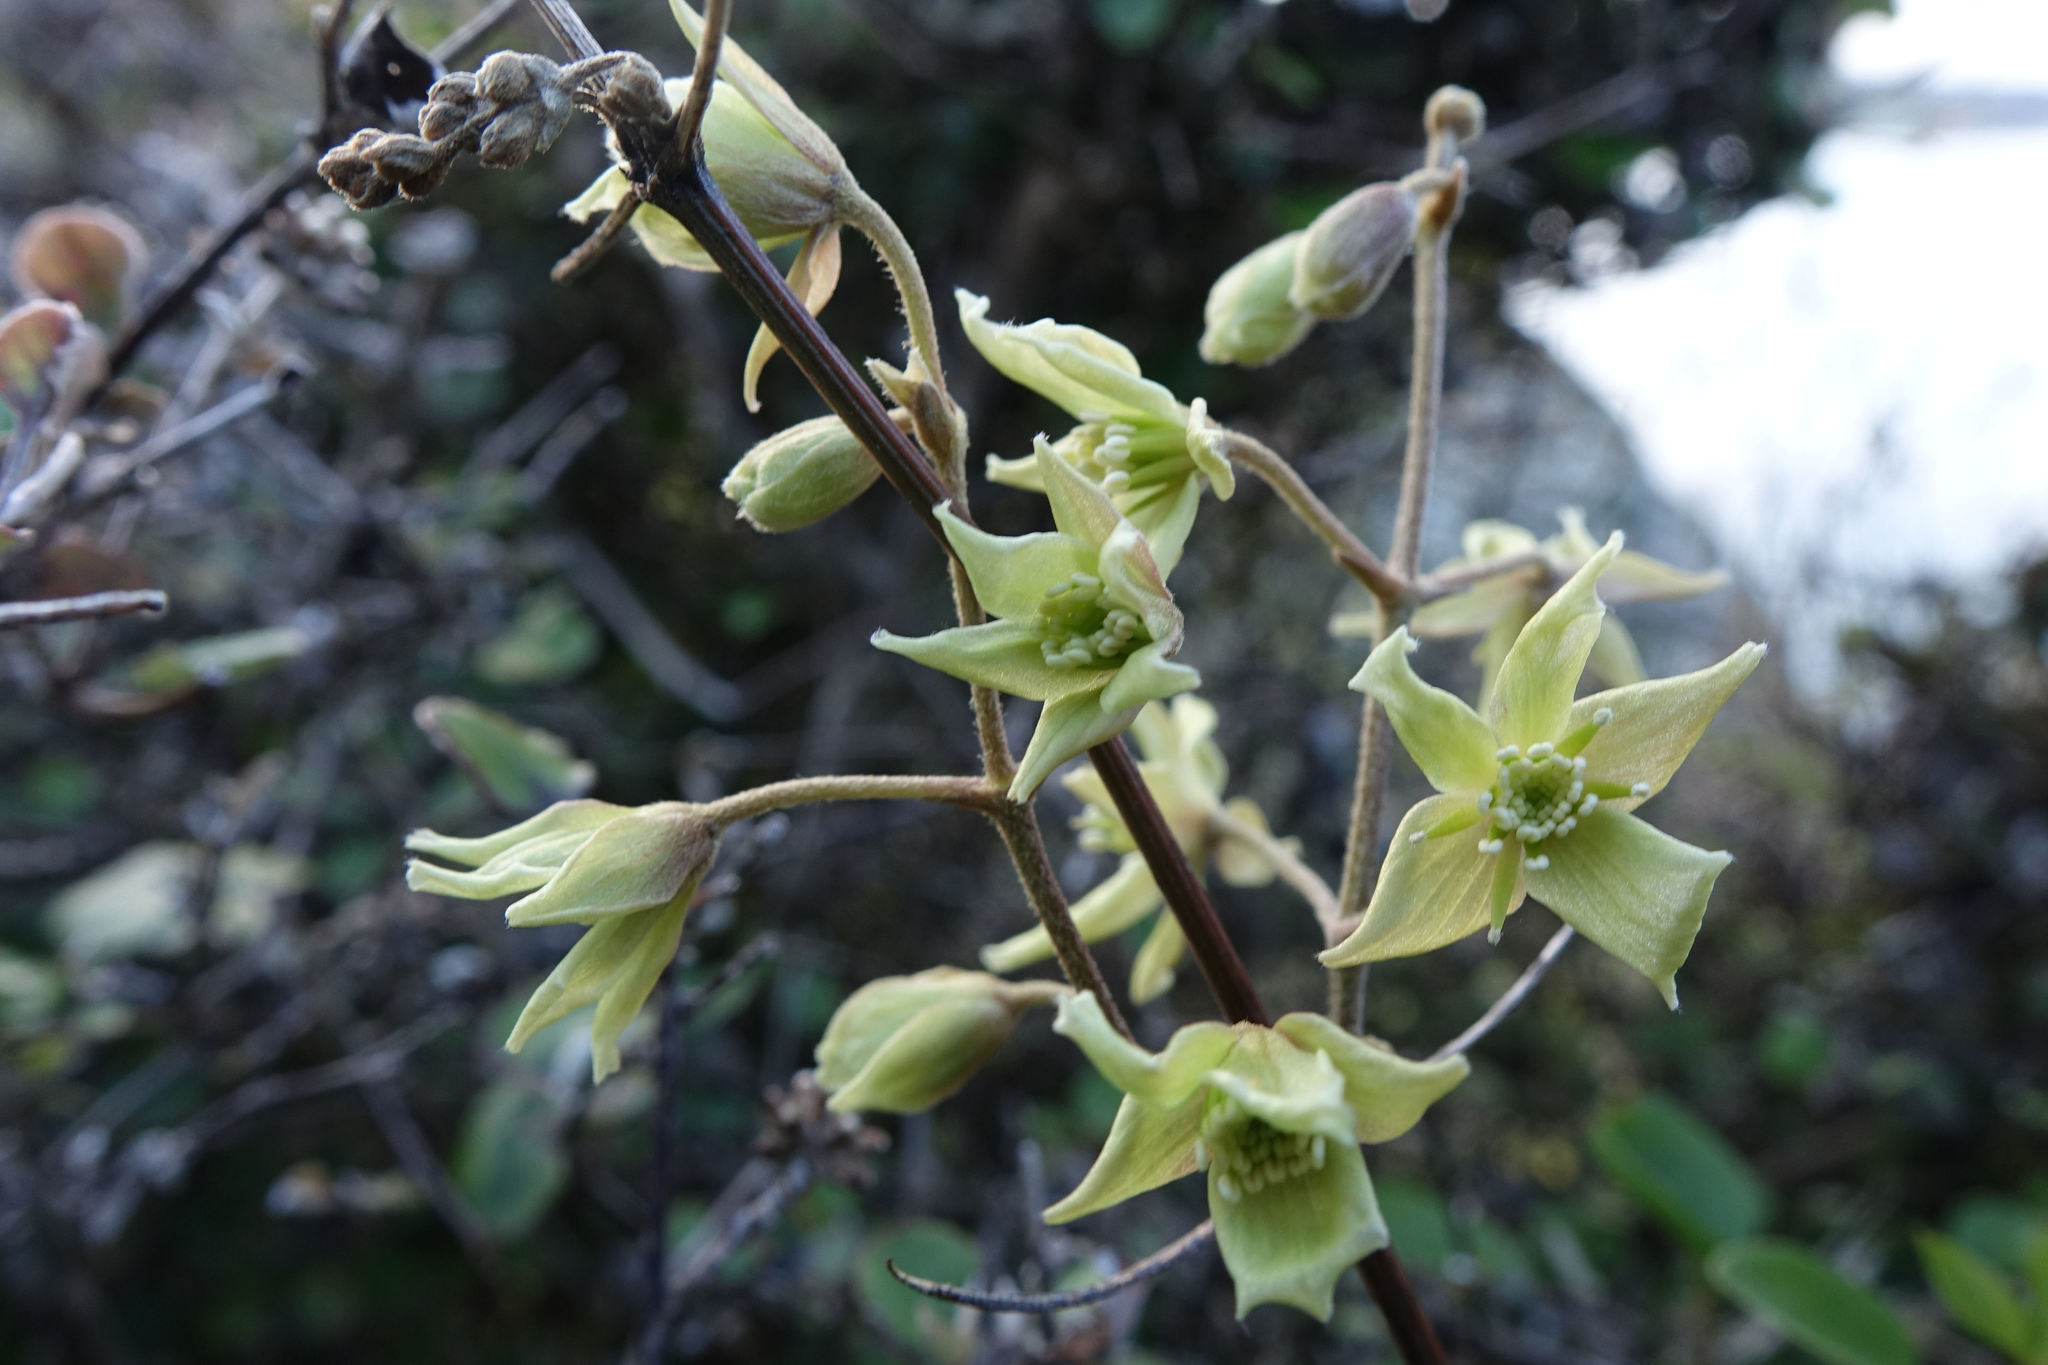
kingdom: Plantae
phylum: Tracheophyta
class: Magnoliopsida
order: Ranunculales
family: Ranunculaceae
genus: Clematis
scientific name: Clematis foetida
